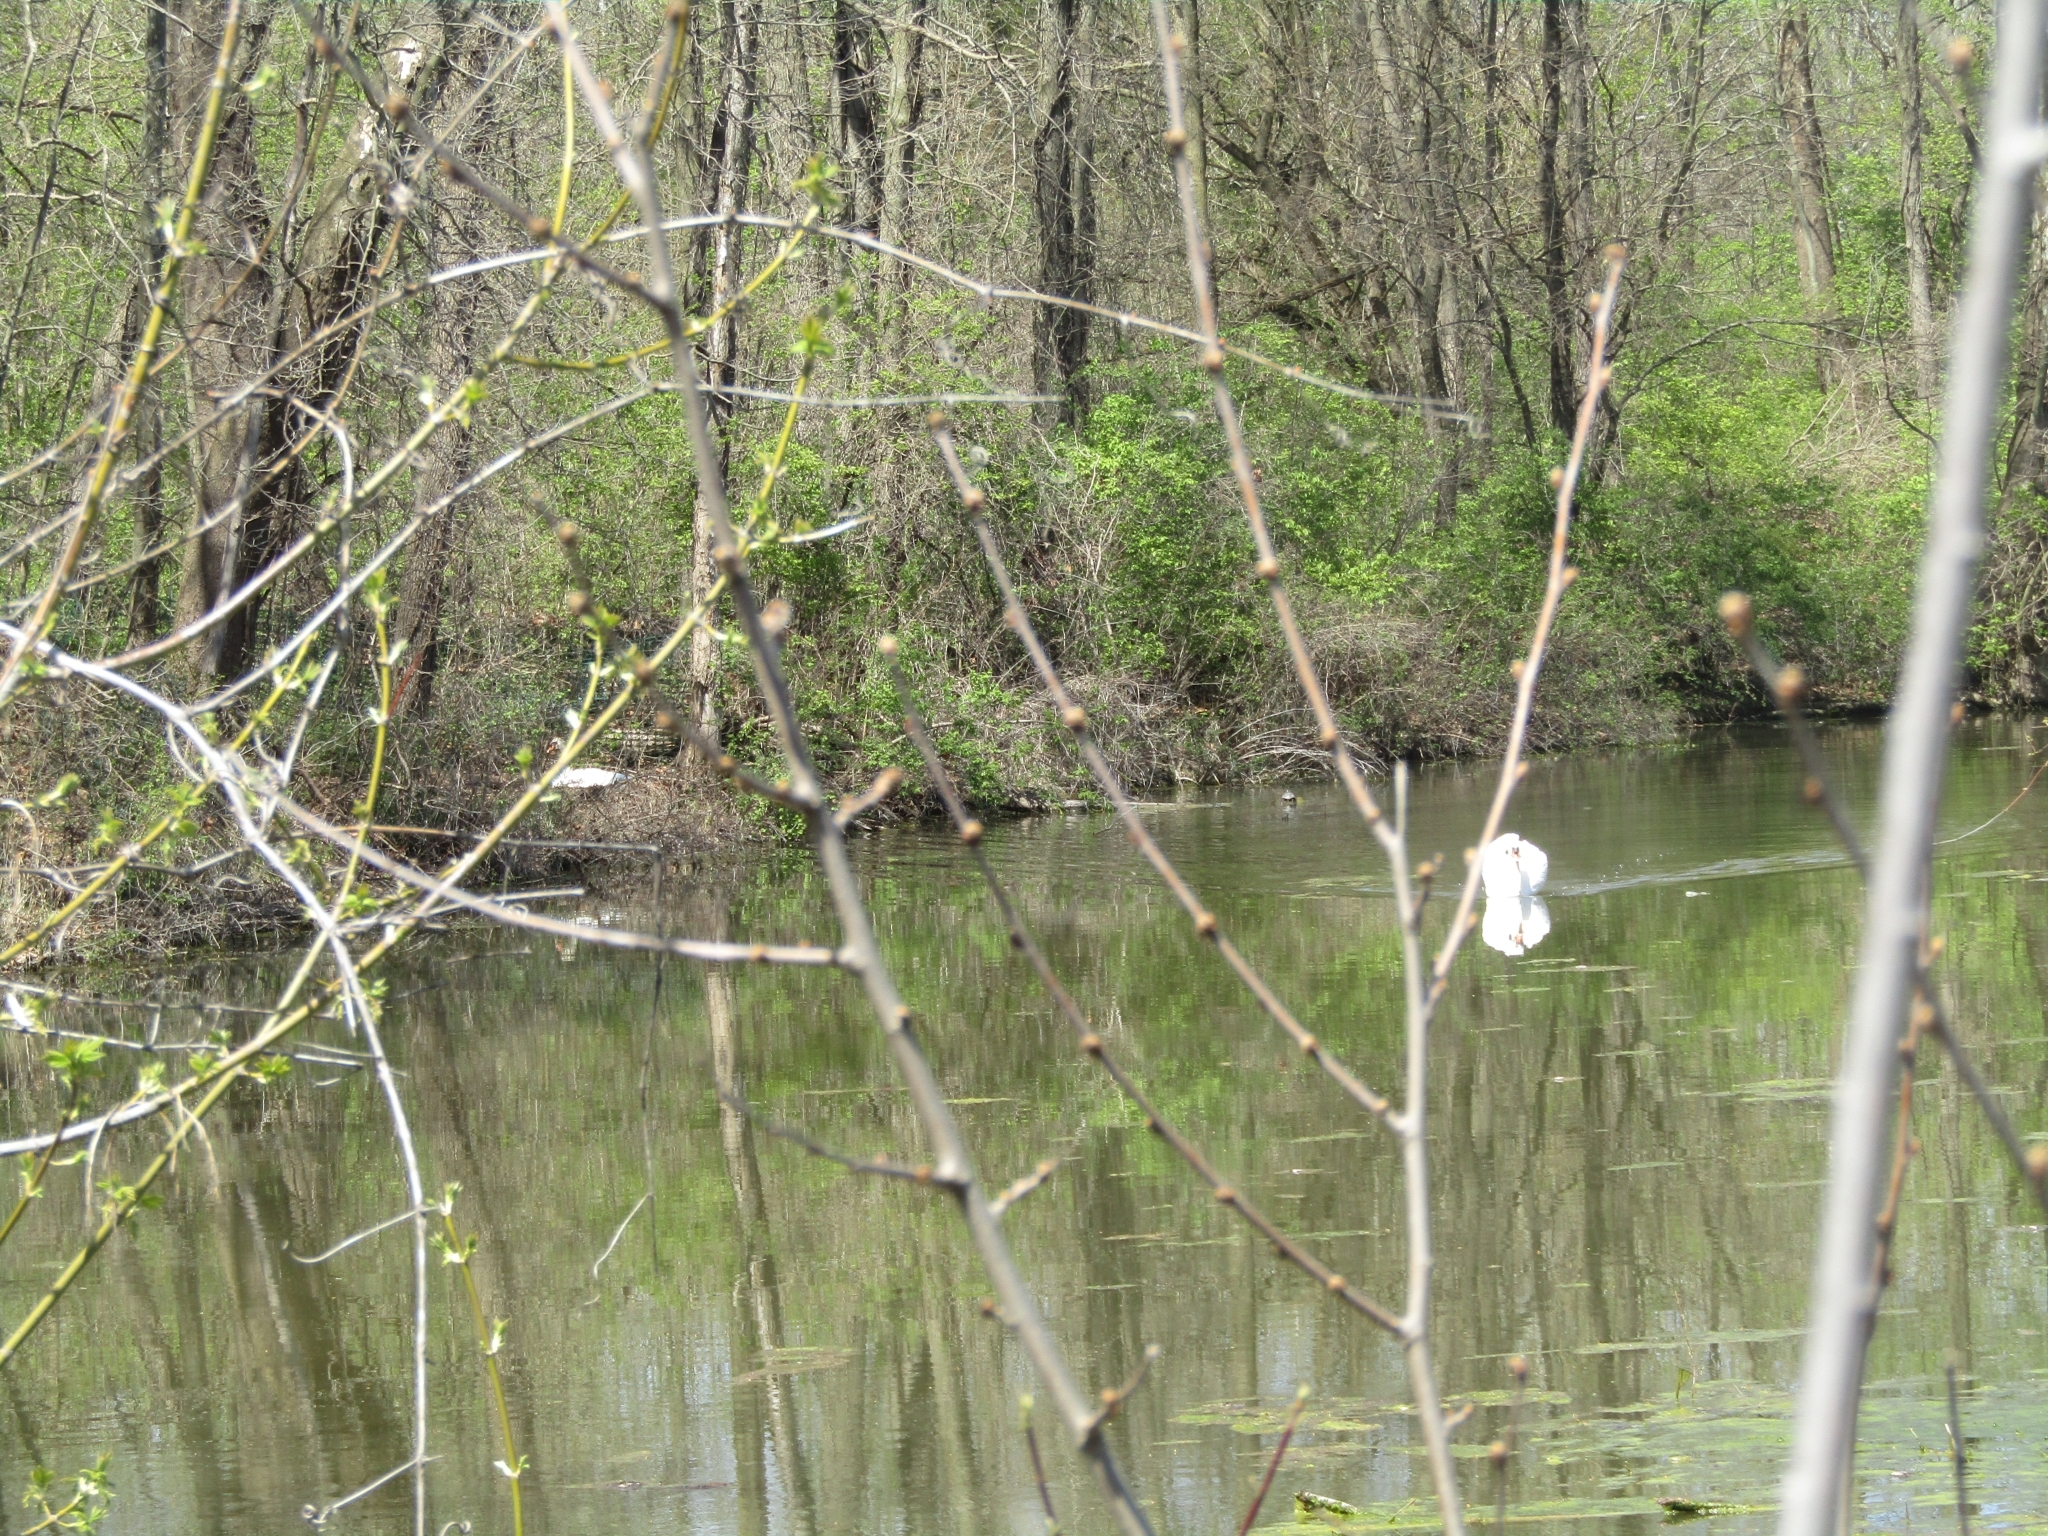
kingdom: Animalia
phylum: Chordata
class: Aves
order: Anseriformes
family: Anatidae
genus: Cygnus
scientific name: Cygnus olor
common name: Mute swan
